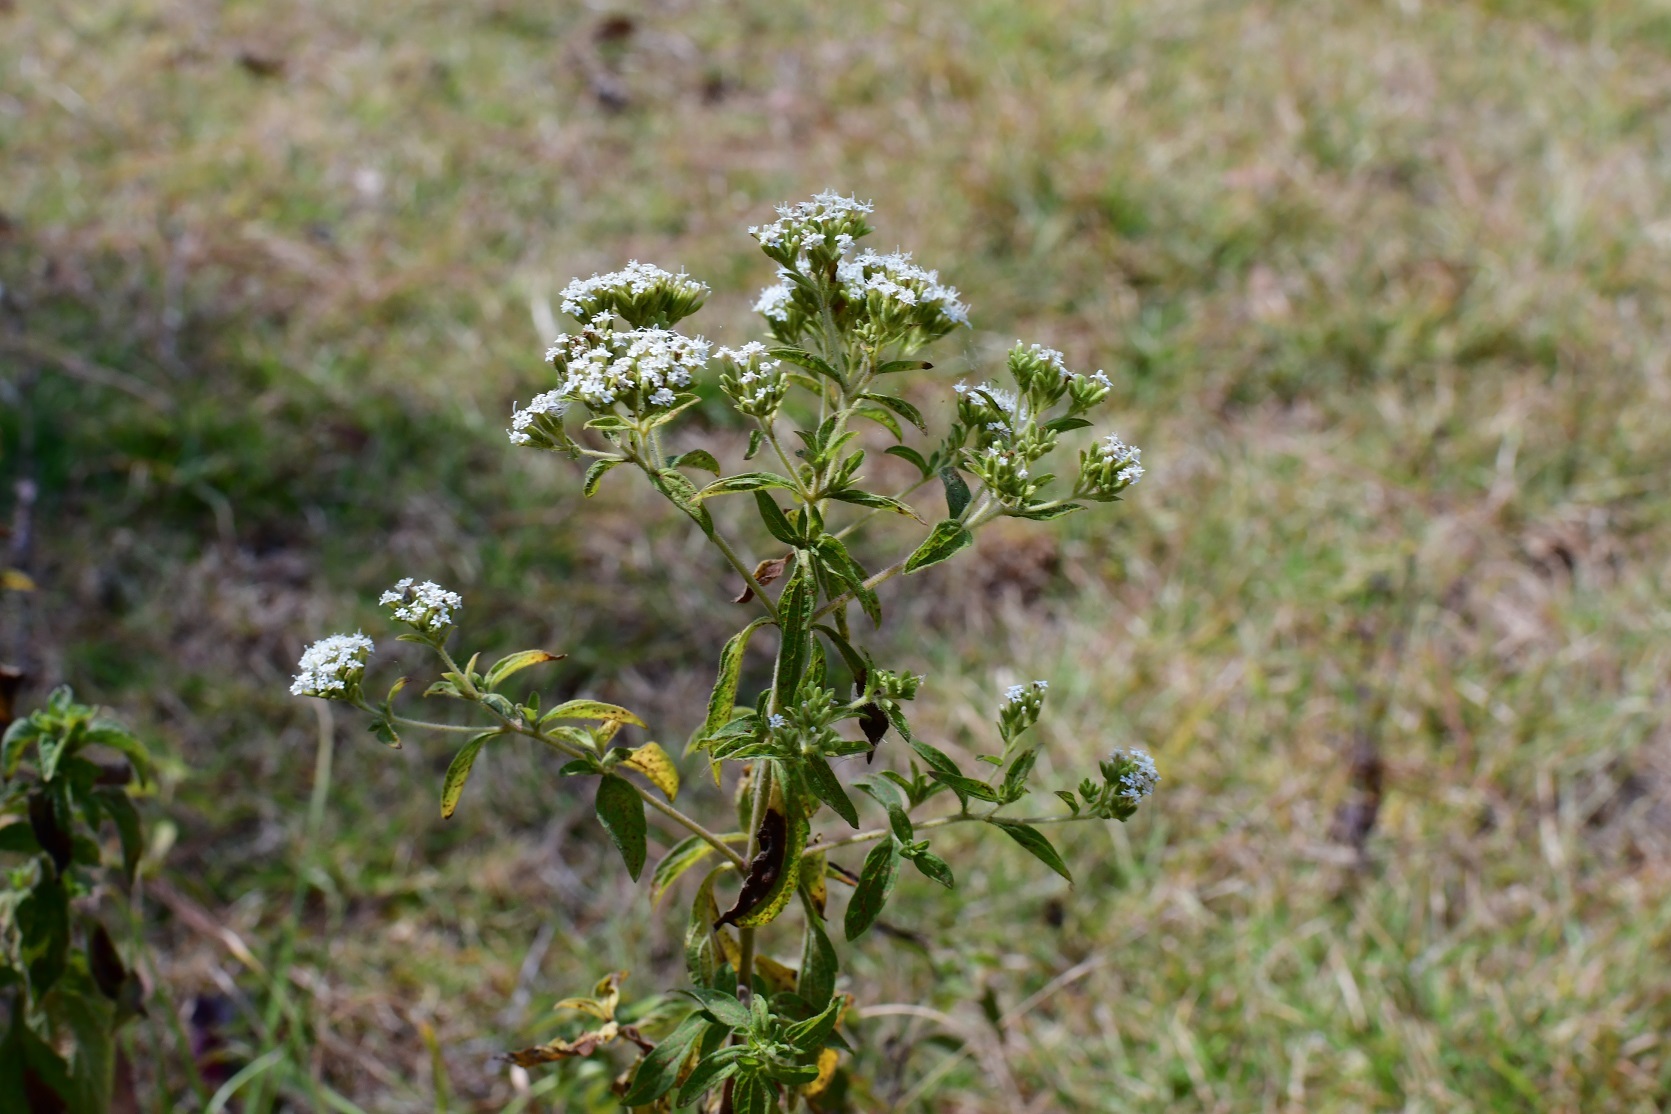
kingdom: Plantae
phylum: Tracheophyta
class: Magnoliopsida
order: Asterales
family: Asteraceae
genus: Stevia
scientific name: Stevia ovata
